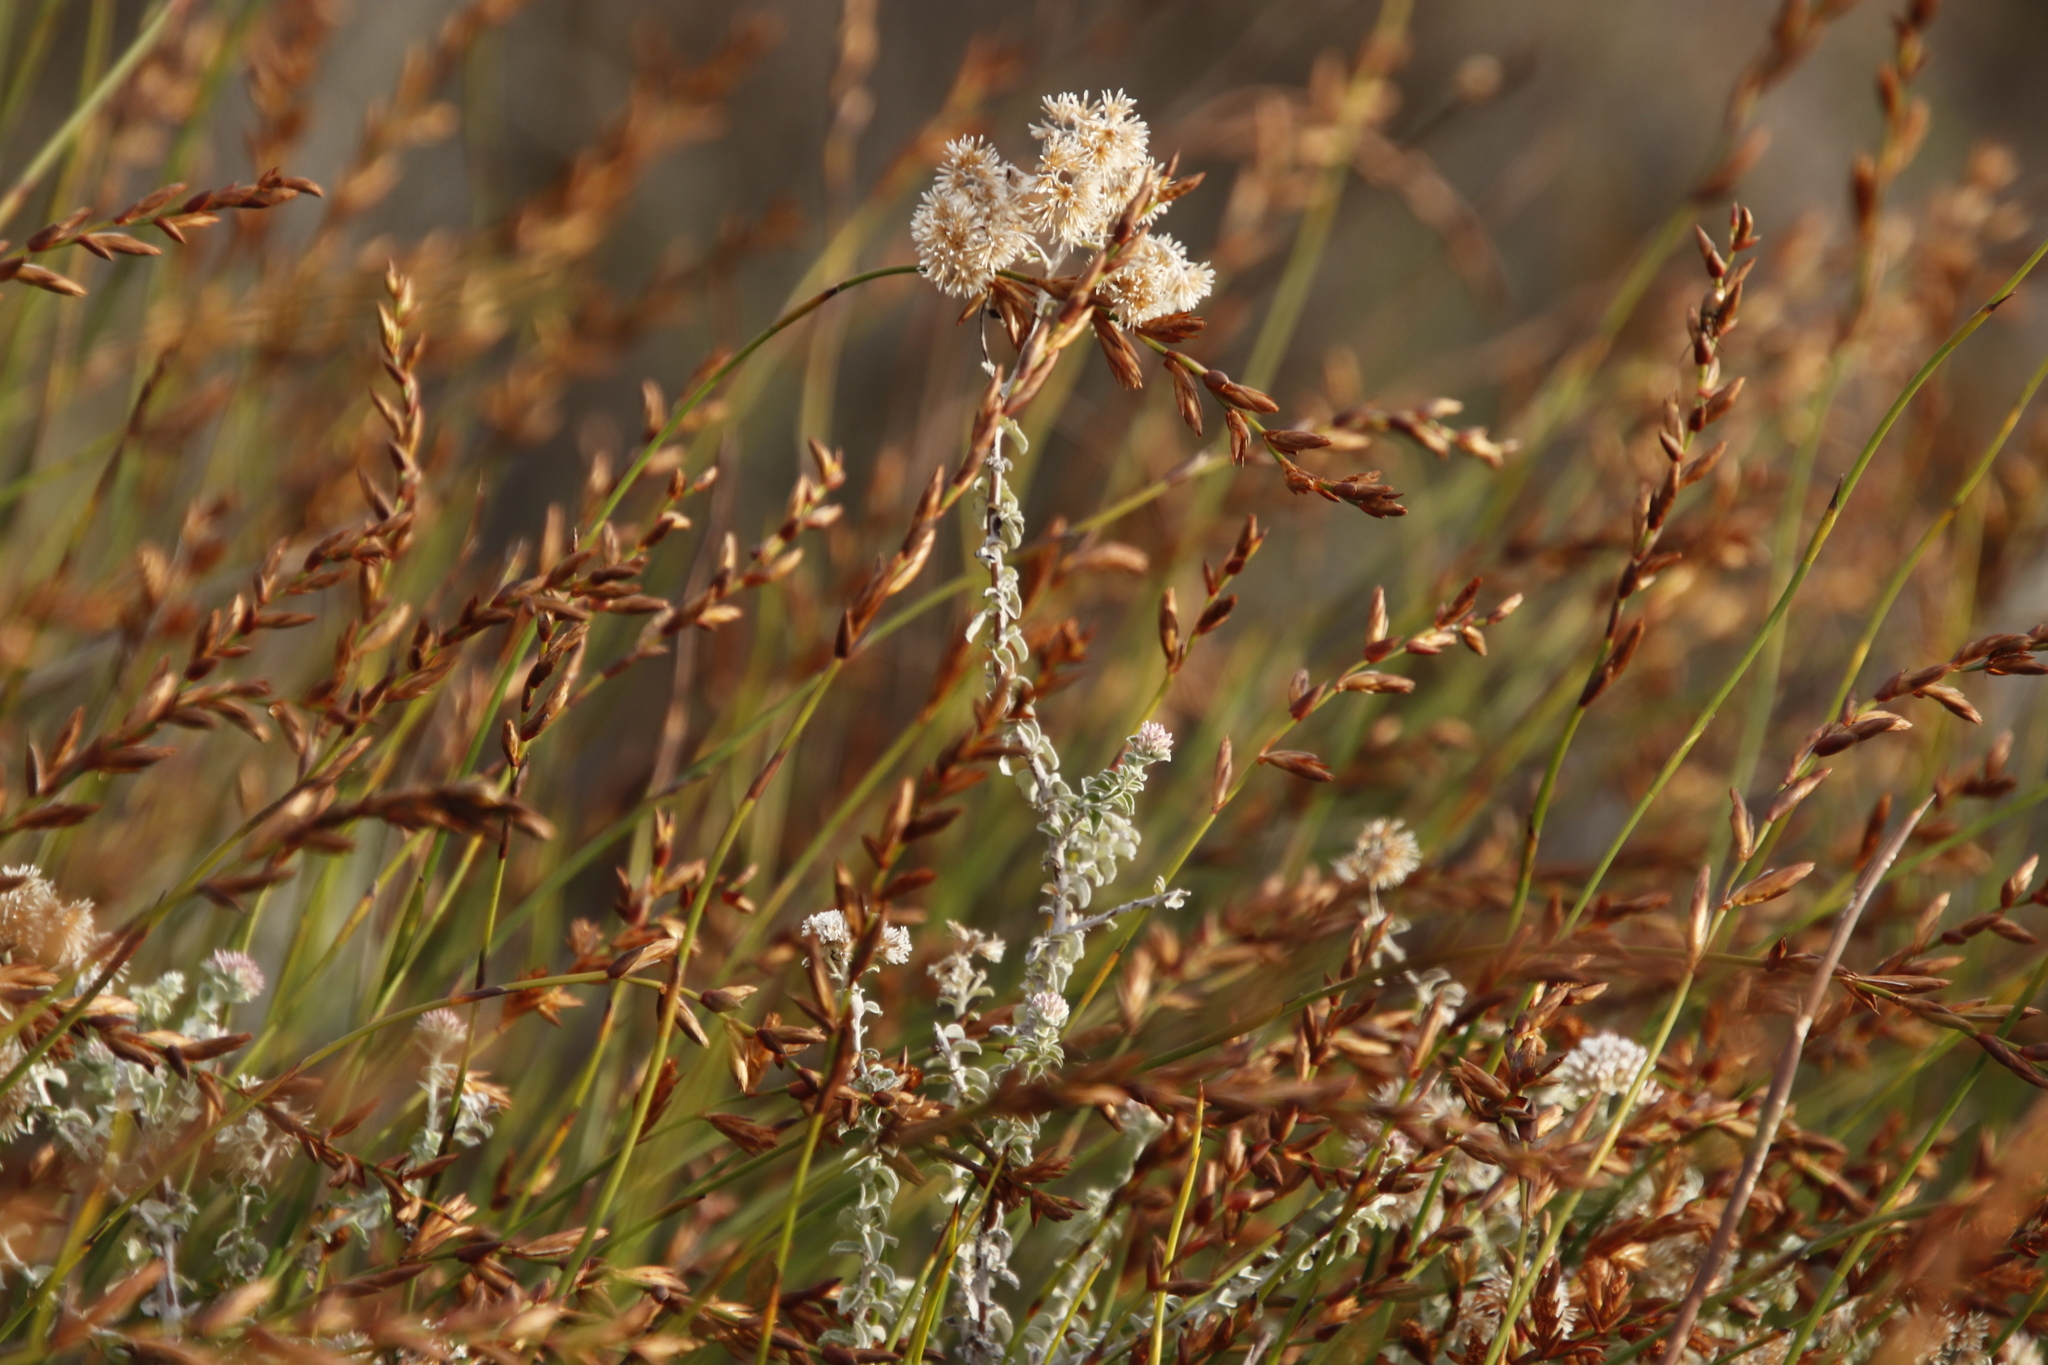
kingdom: Plantae
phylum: Tracheophyta
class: Magnoliopsida
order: Asterales
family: Asteraceae
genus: Plecostachys
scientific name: Plecostachys serpyllifolia
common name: Petite licorice
